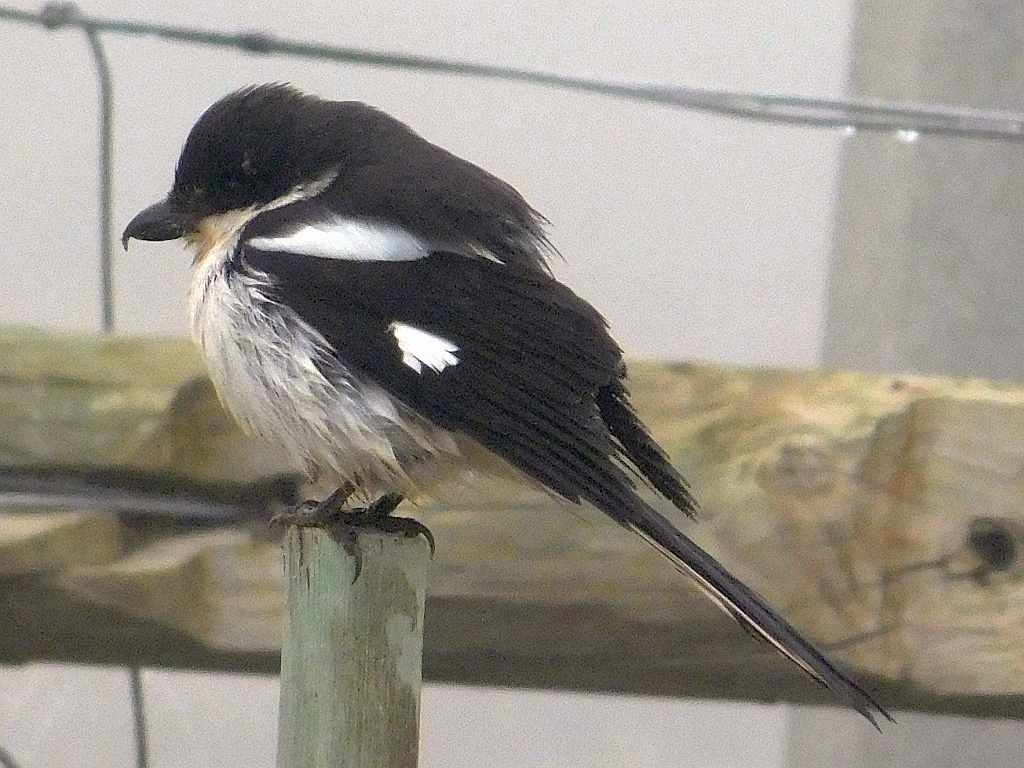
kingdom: Animalia
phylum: Chordata
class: Aves
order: Passeriformes
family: Laniidae
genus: Lanius
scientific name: Lanius collaris
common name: Southern fiscal
